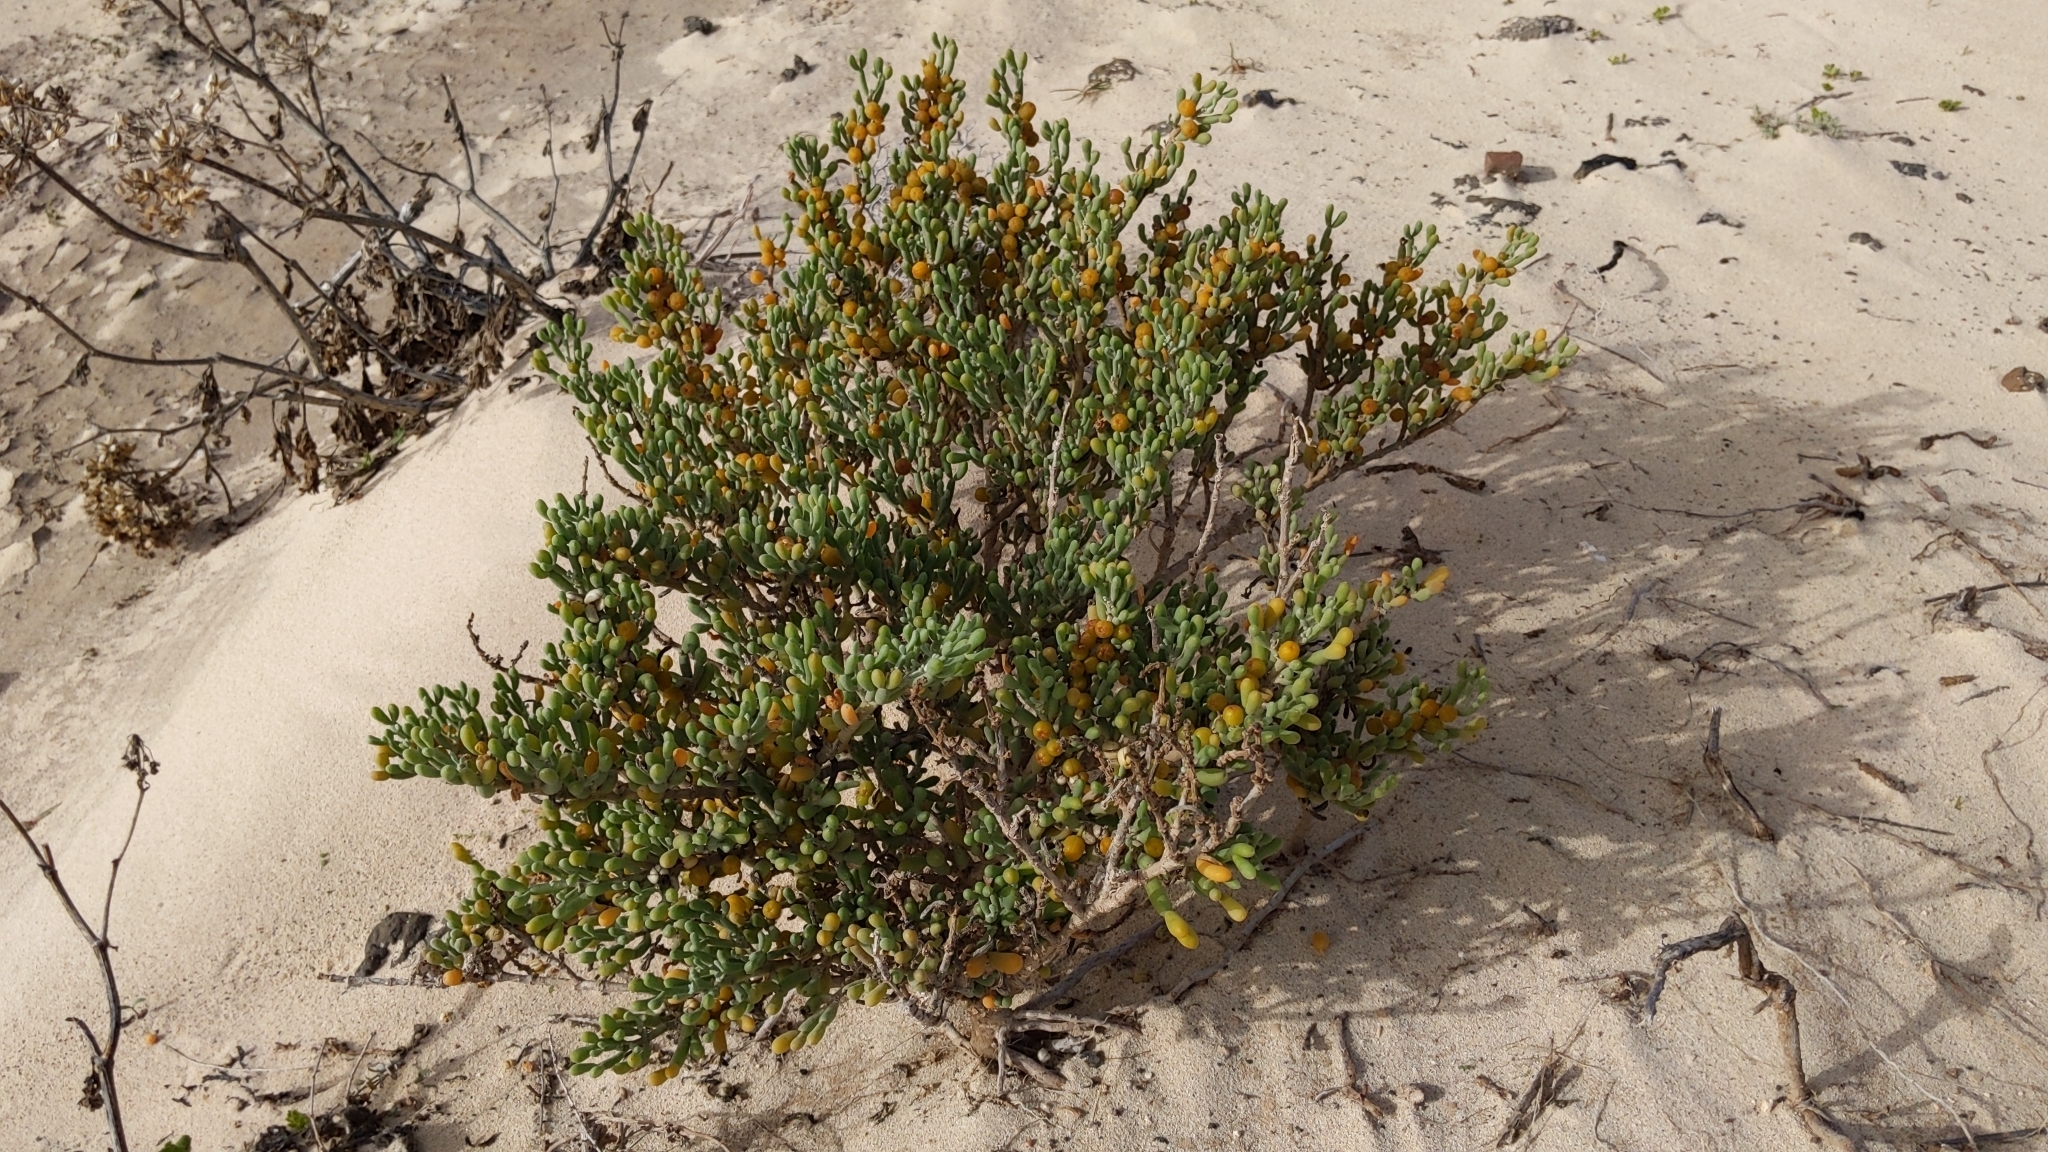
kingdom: Plantae
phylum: Tracheophyta
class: Magnoliopsida
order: Zygophyllales
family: Zygophyllaceae
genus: Tetraena
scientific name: Tetraena fontanesii
